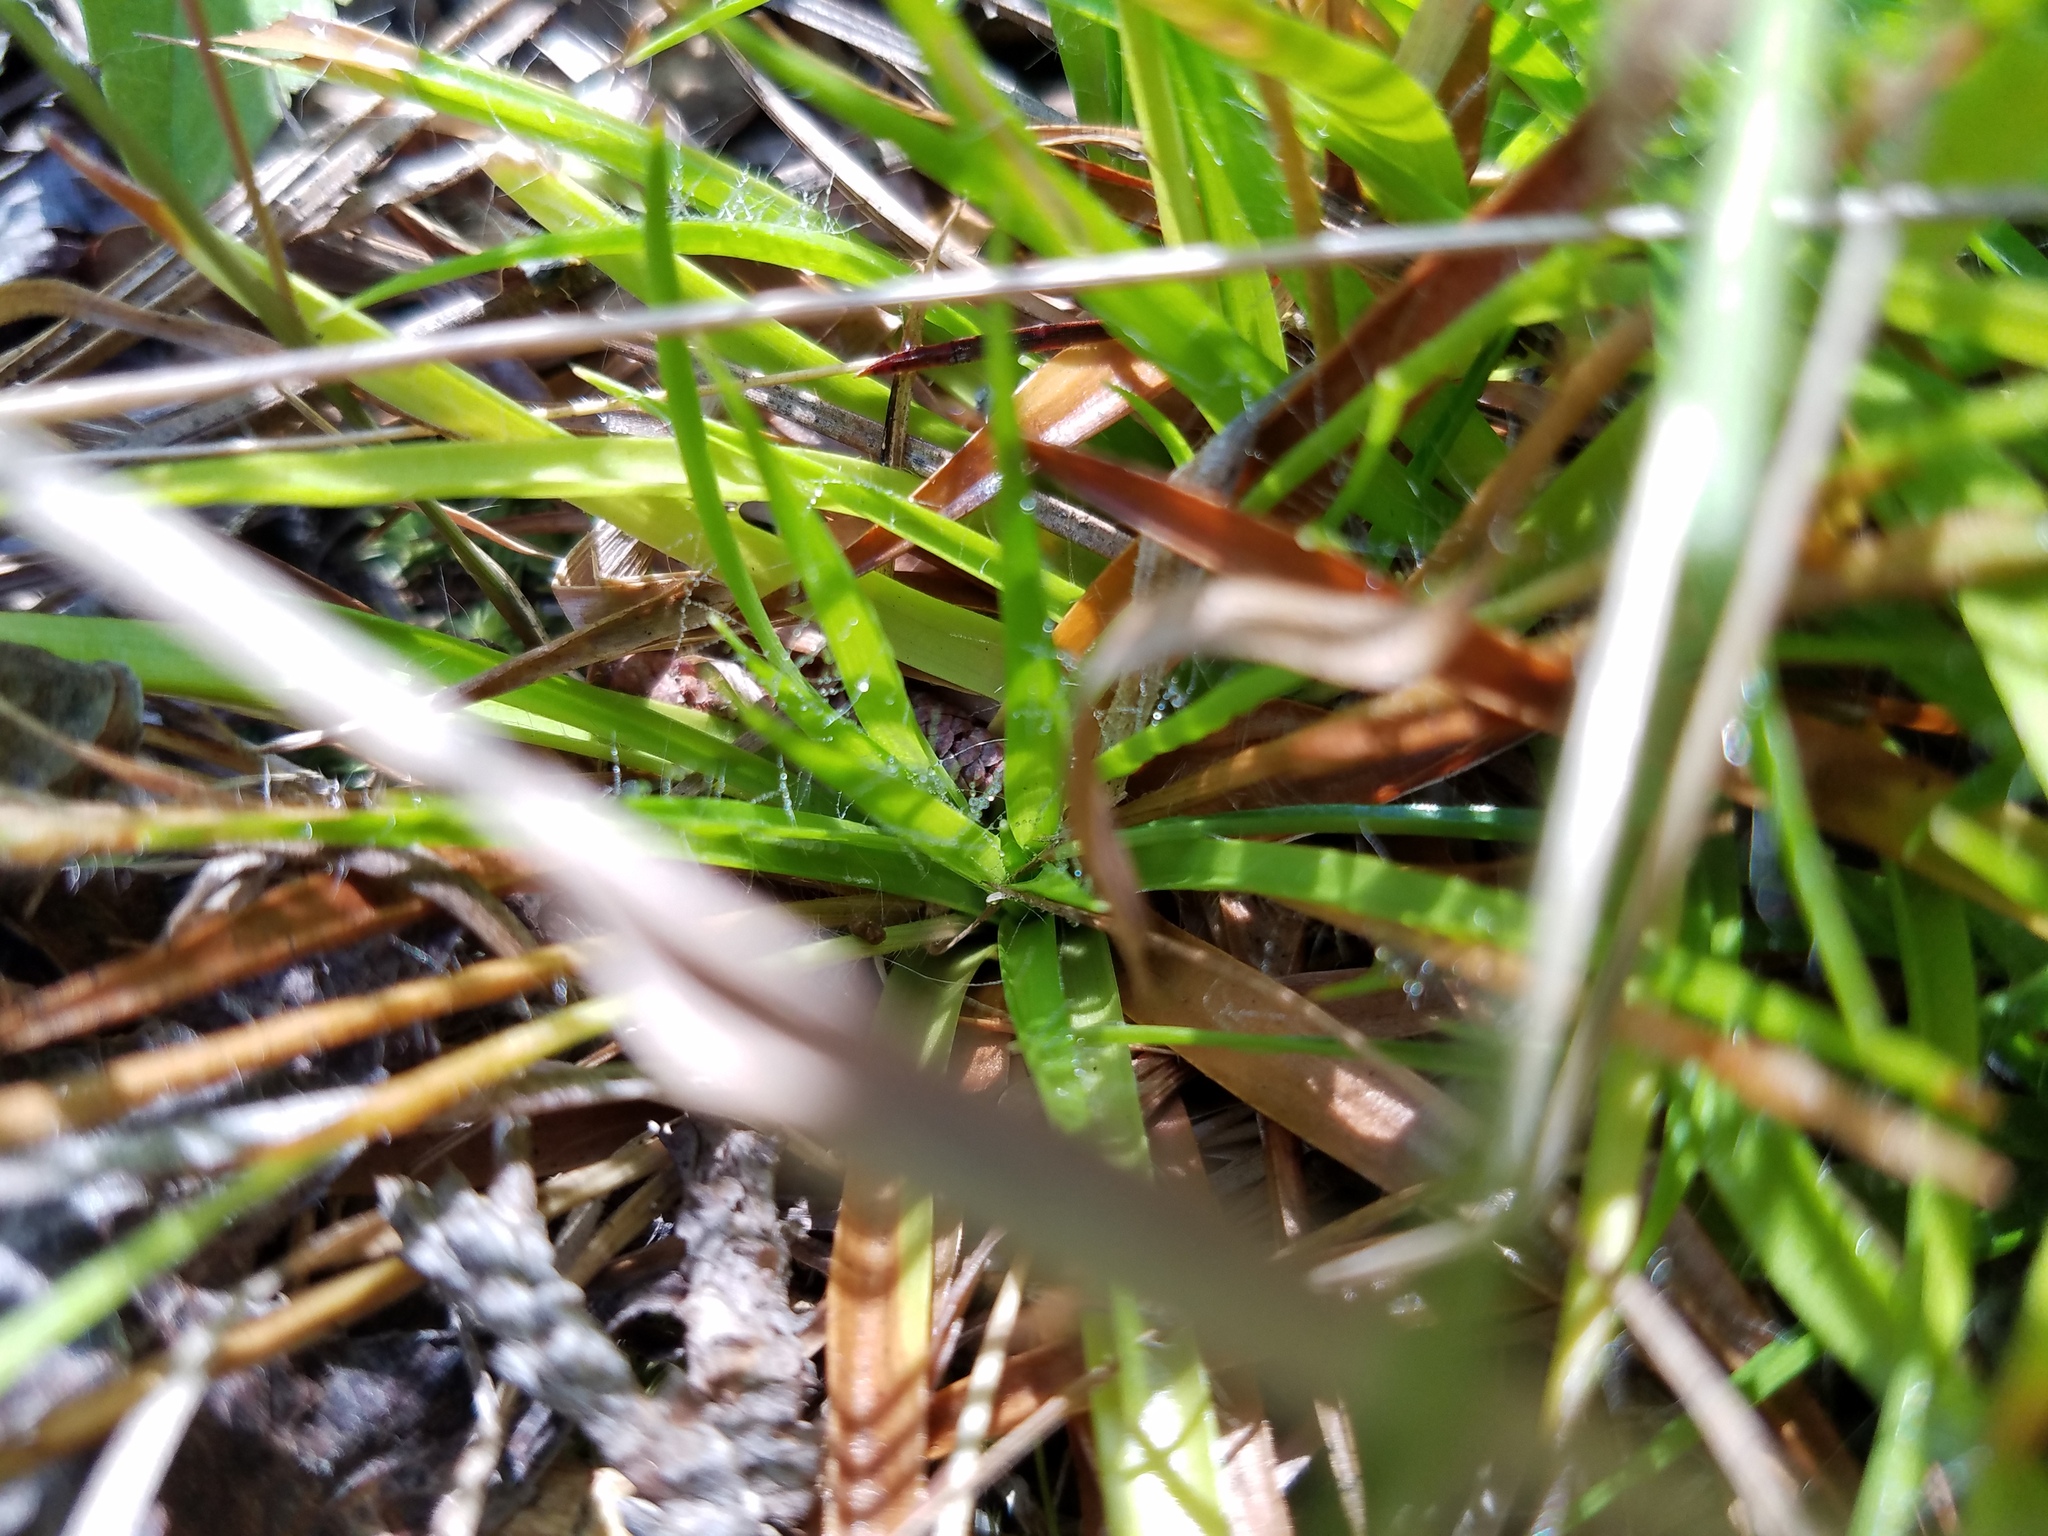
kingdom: Plantae
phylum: Tracheophyta
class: Liliopsida
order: Poales
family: Eriocaulaceae
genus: Paepalanthus
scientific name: Paepalanthus anceps
